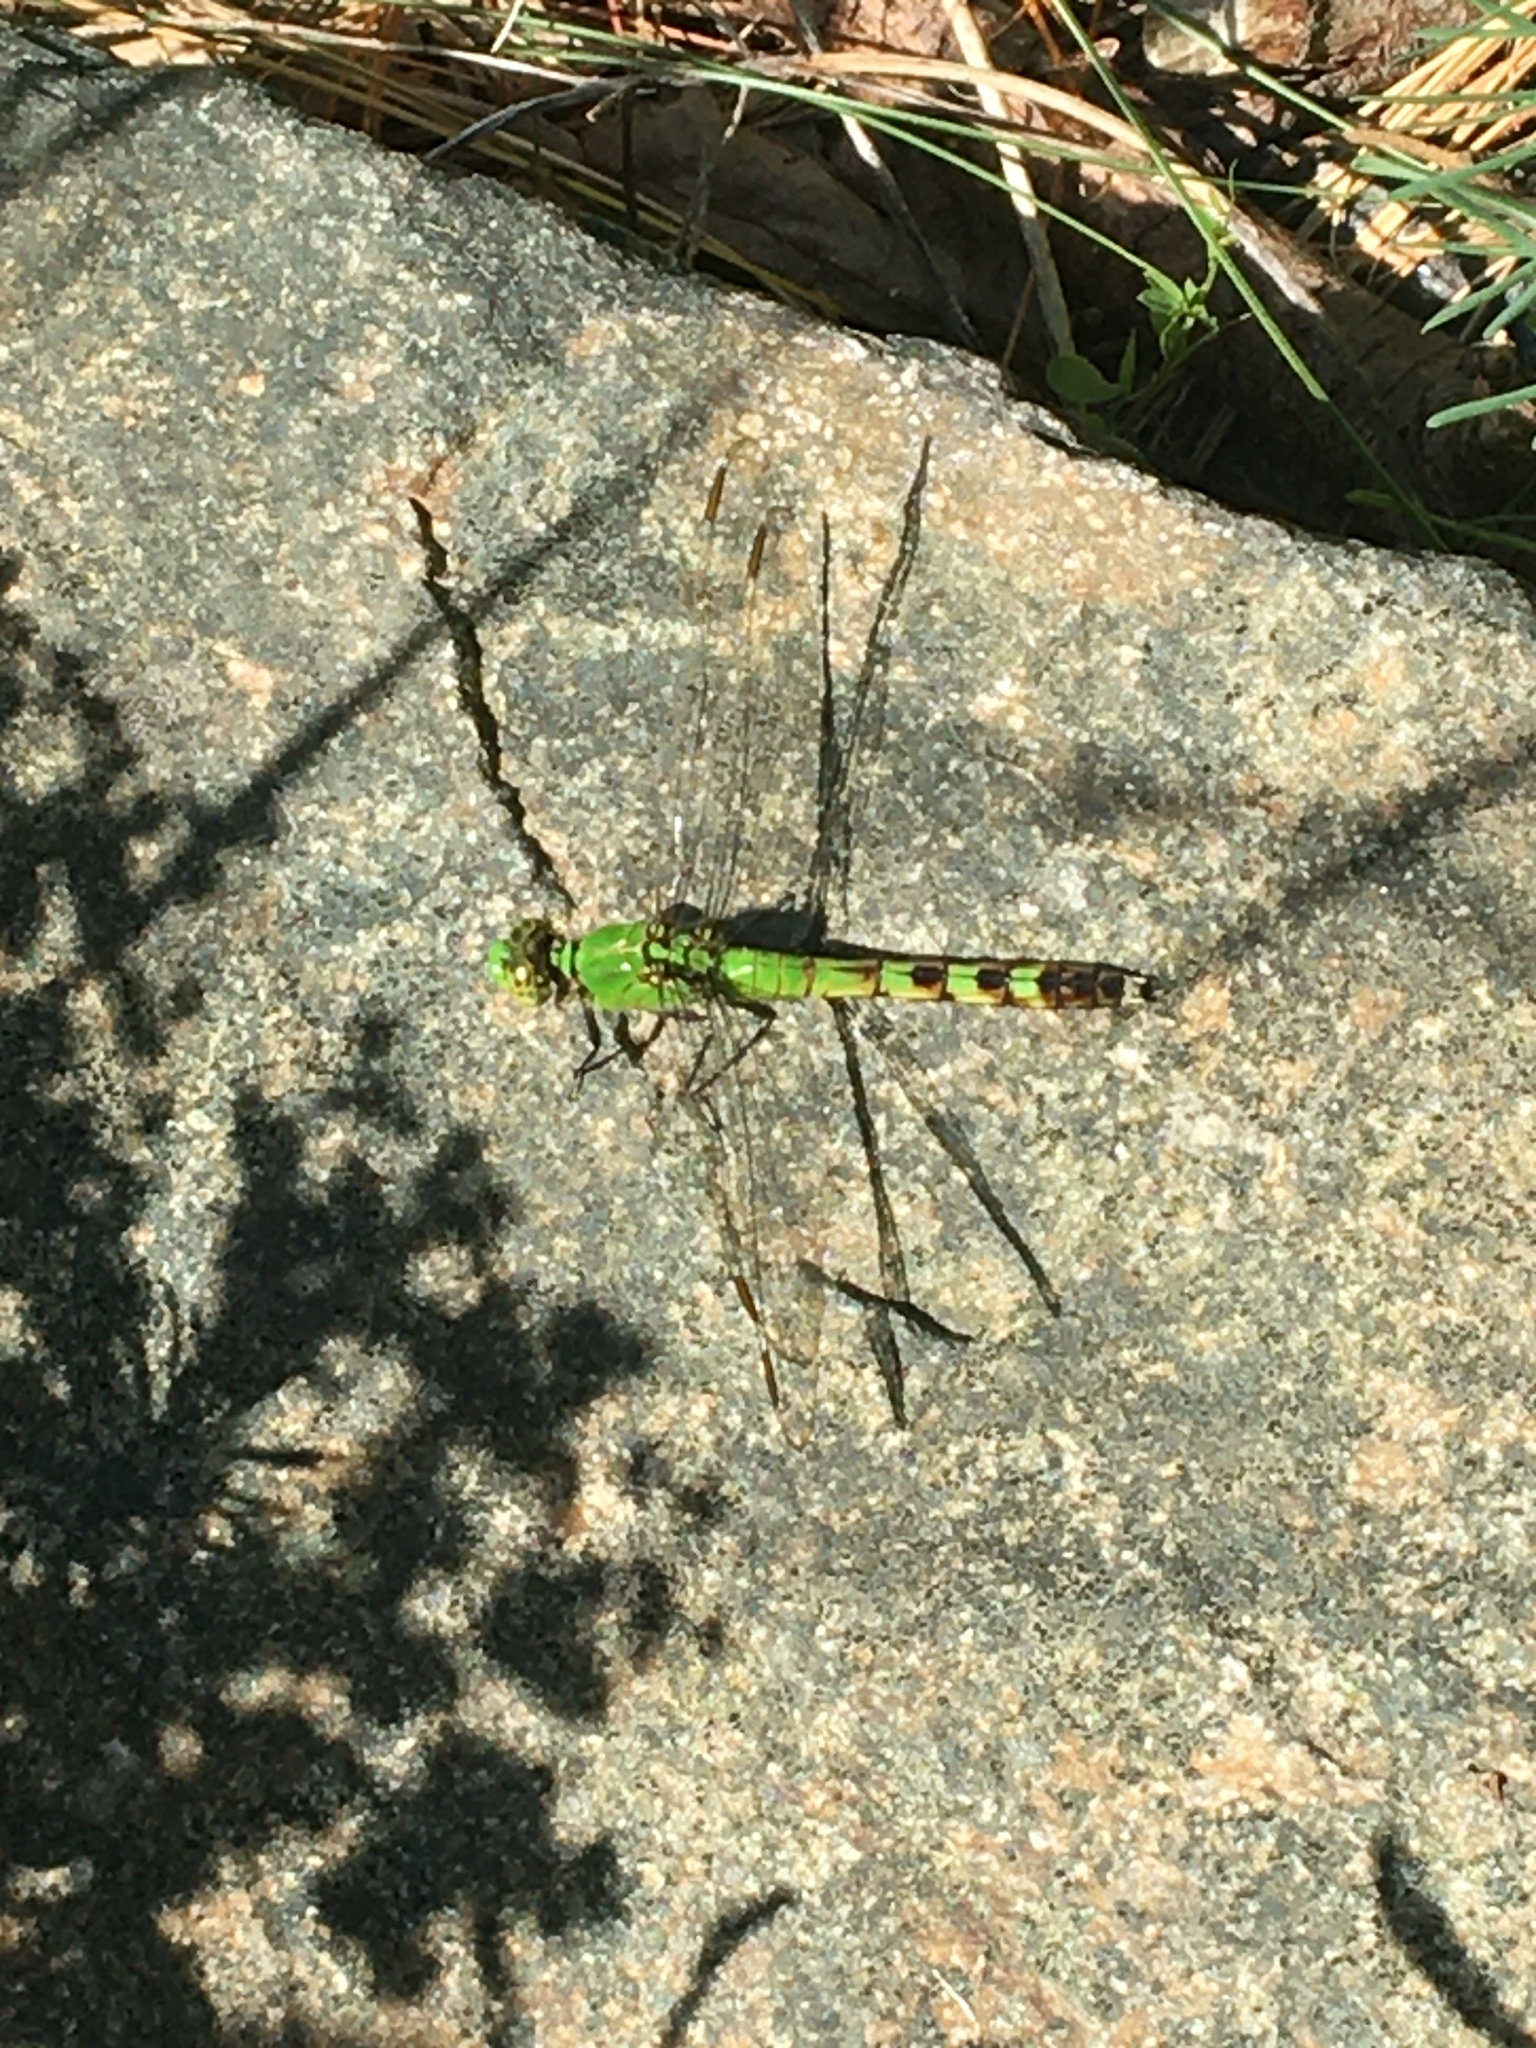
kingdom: Animalia
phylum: Arthropoda
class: Insecta
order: Odonata
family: Libellulidae
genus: Erythemis
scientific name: Erythemis simplicicollis
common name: Eastern pondhawk
